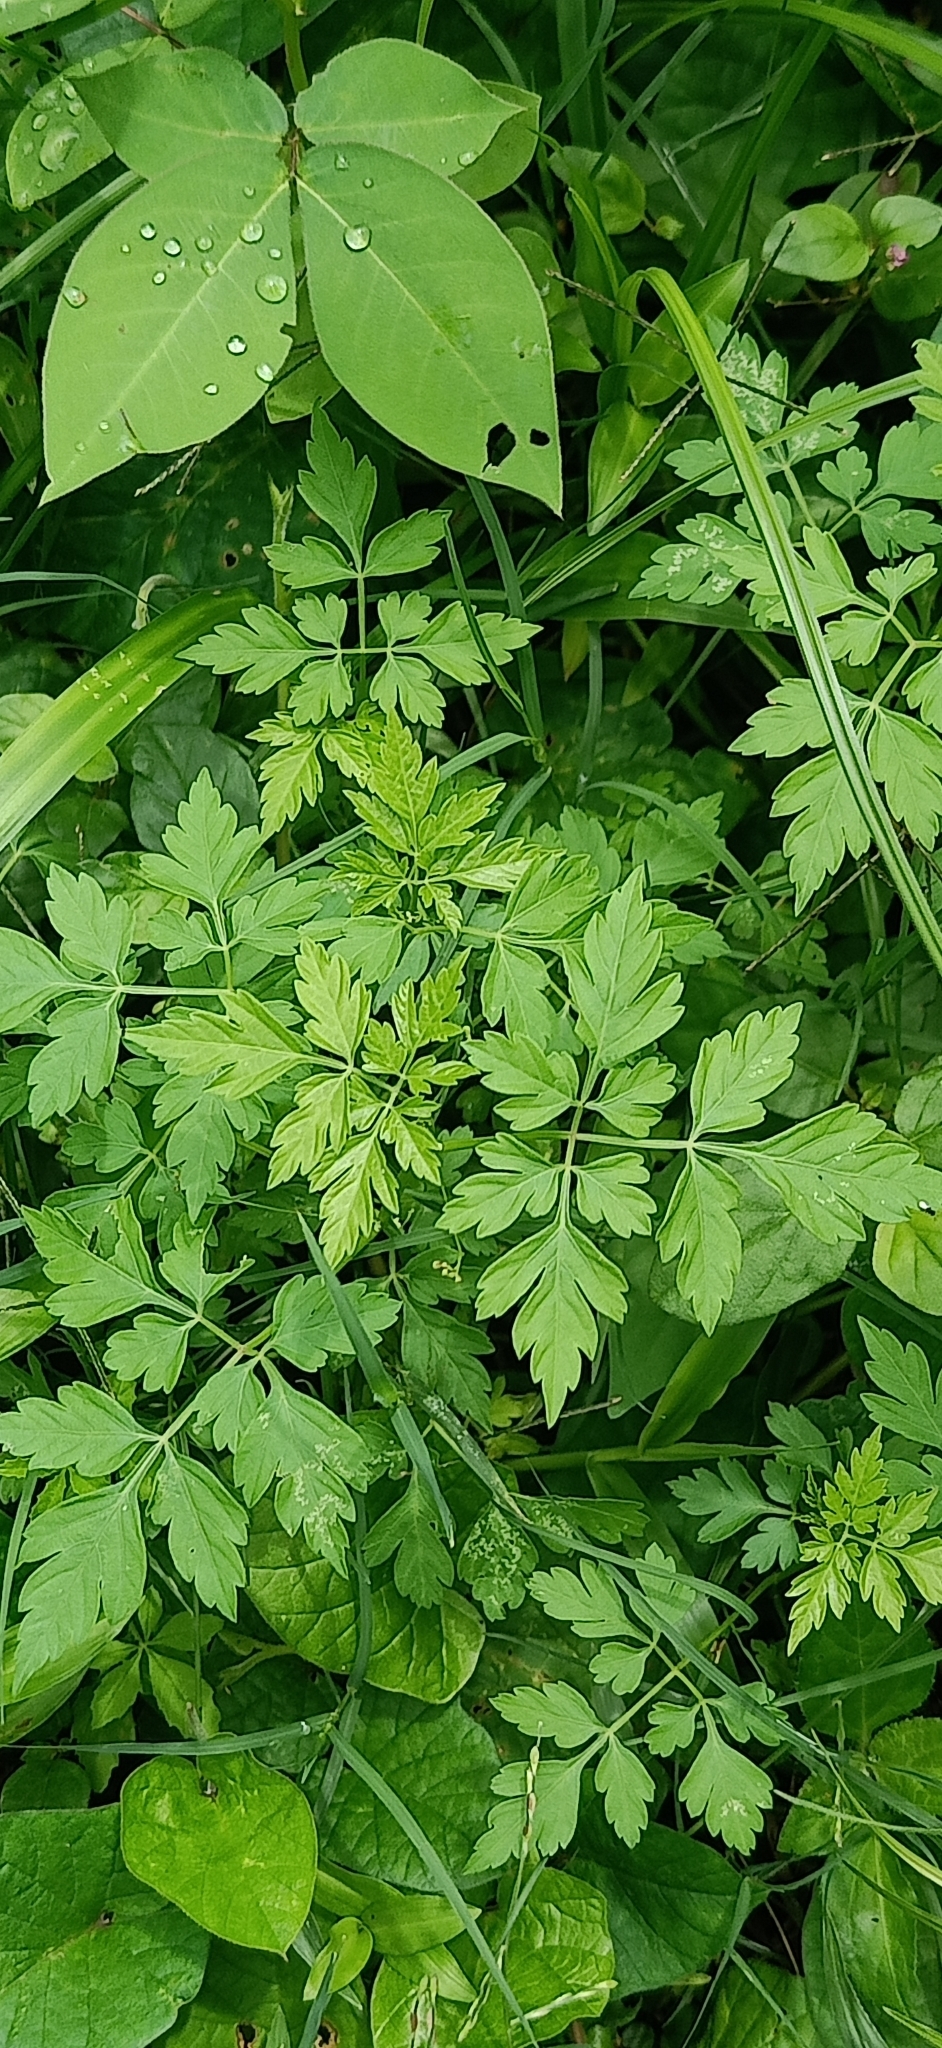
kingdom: Plantae
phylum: Tracheophyta
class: Magnoliopsida
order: Sapindales
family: Sapindaceae
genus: Cardiospermum
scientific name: Cardiospermum halicacabum
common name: Balloon vine
